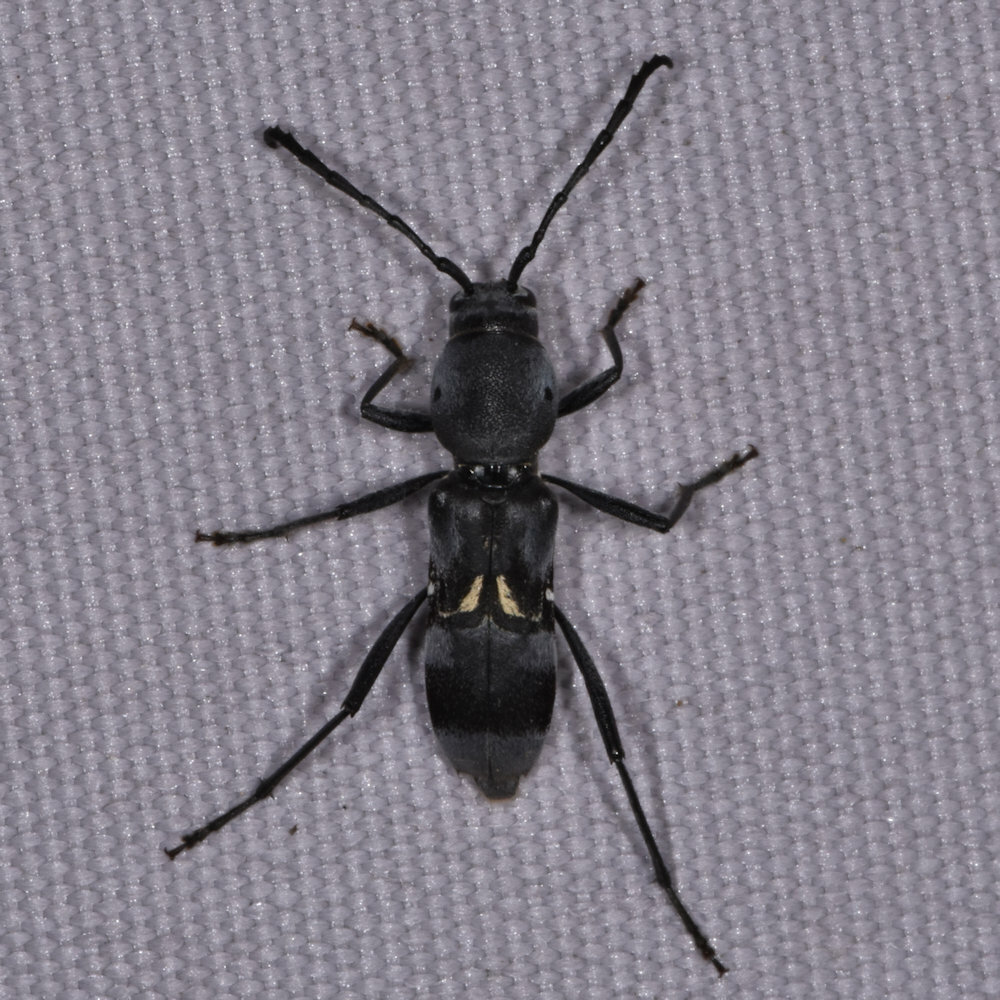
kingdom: Animalia
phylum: Arthropoda
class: Insecta
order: Coleoptera
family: Cerambycidae
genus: Chlorophorus
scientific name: Chlorophorus ancora
